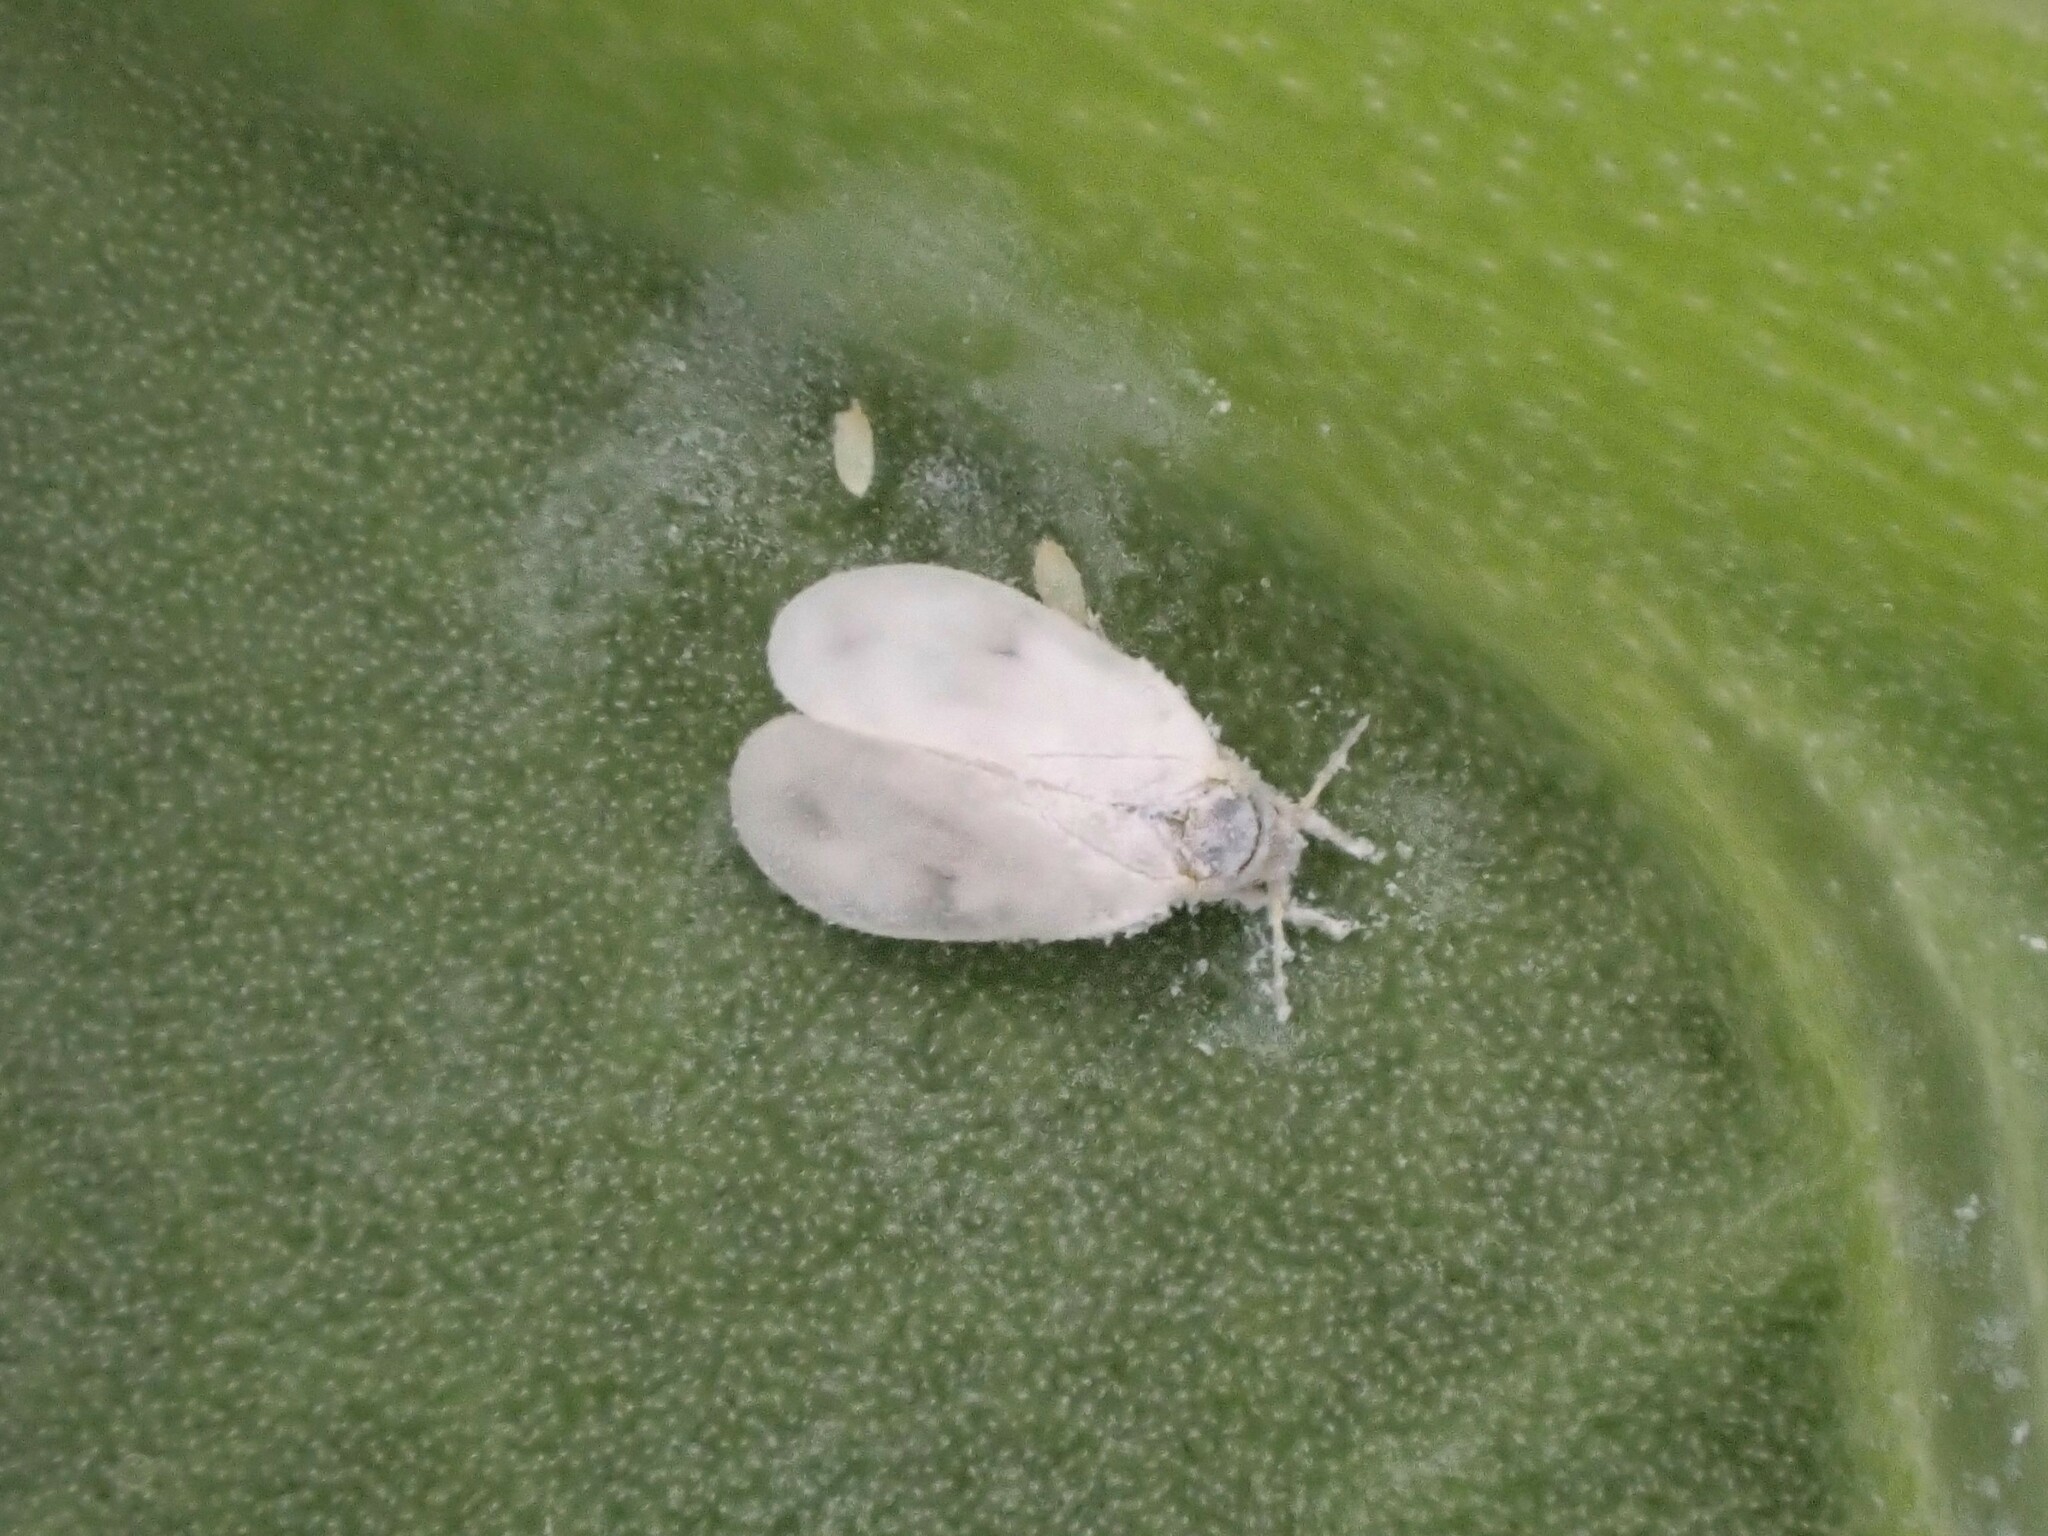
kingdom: Animalia
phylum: Arthropoda
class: Insecta
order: Hemiptera
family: Aleyrodidae
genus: Aleyrodes
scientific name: Aleyrodes proletella
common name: Cabbage whitefly
